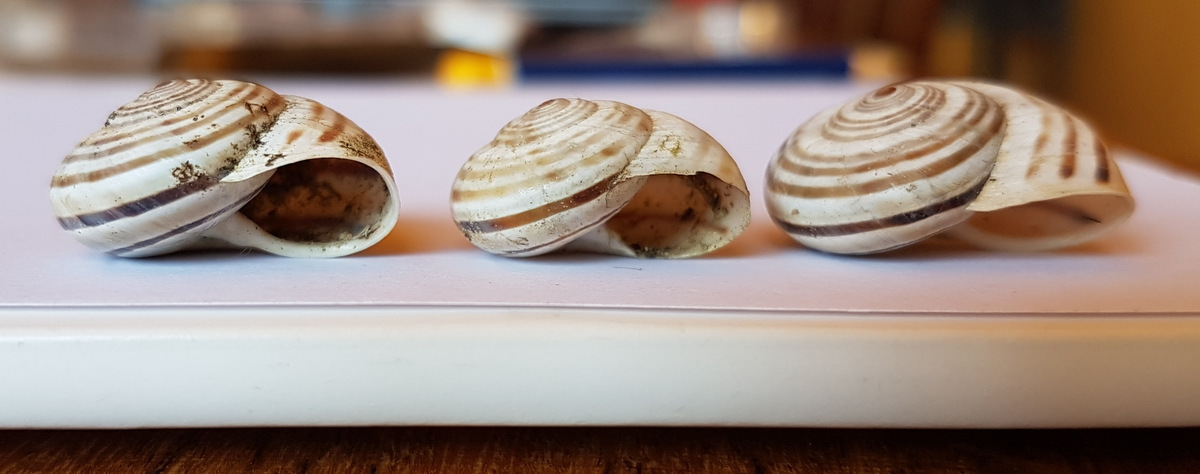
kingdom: Animalia
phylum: Mollusca
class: Gastropoda
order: Stylommatophora
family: Helicidae
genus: Pseudotachea
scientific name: Pseudotachea splendida
